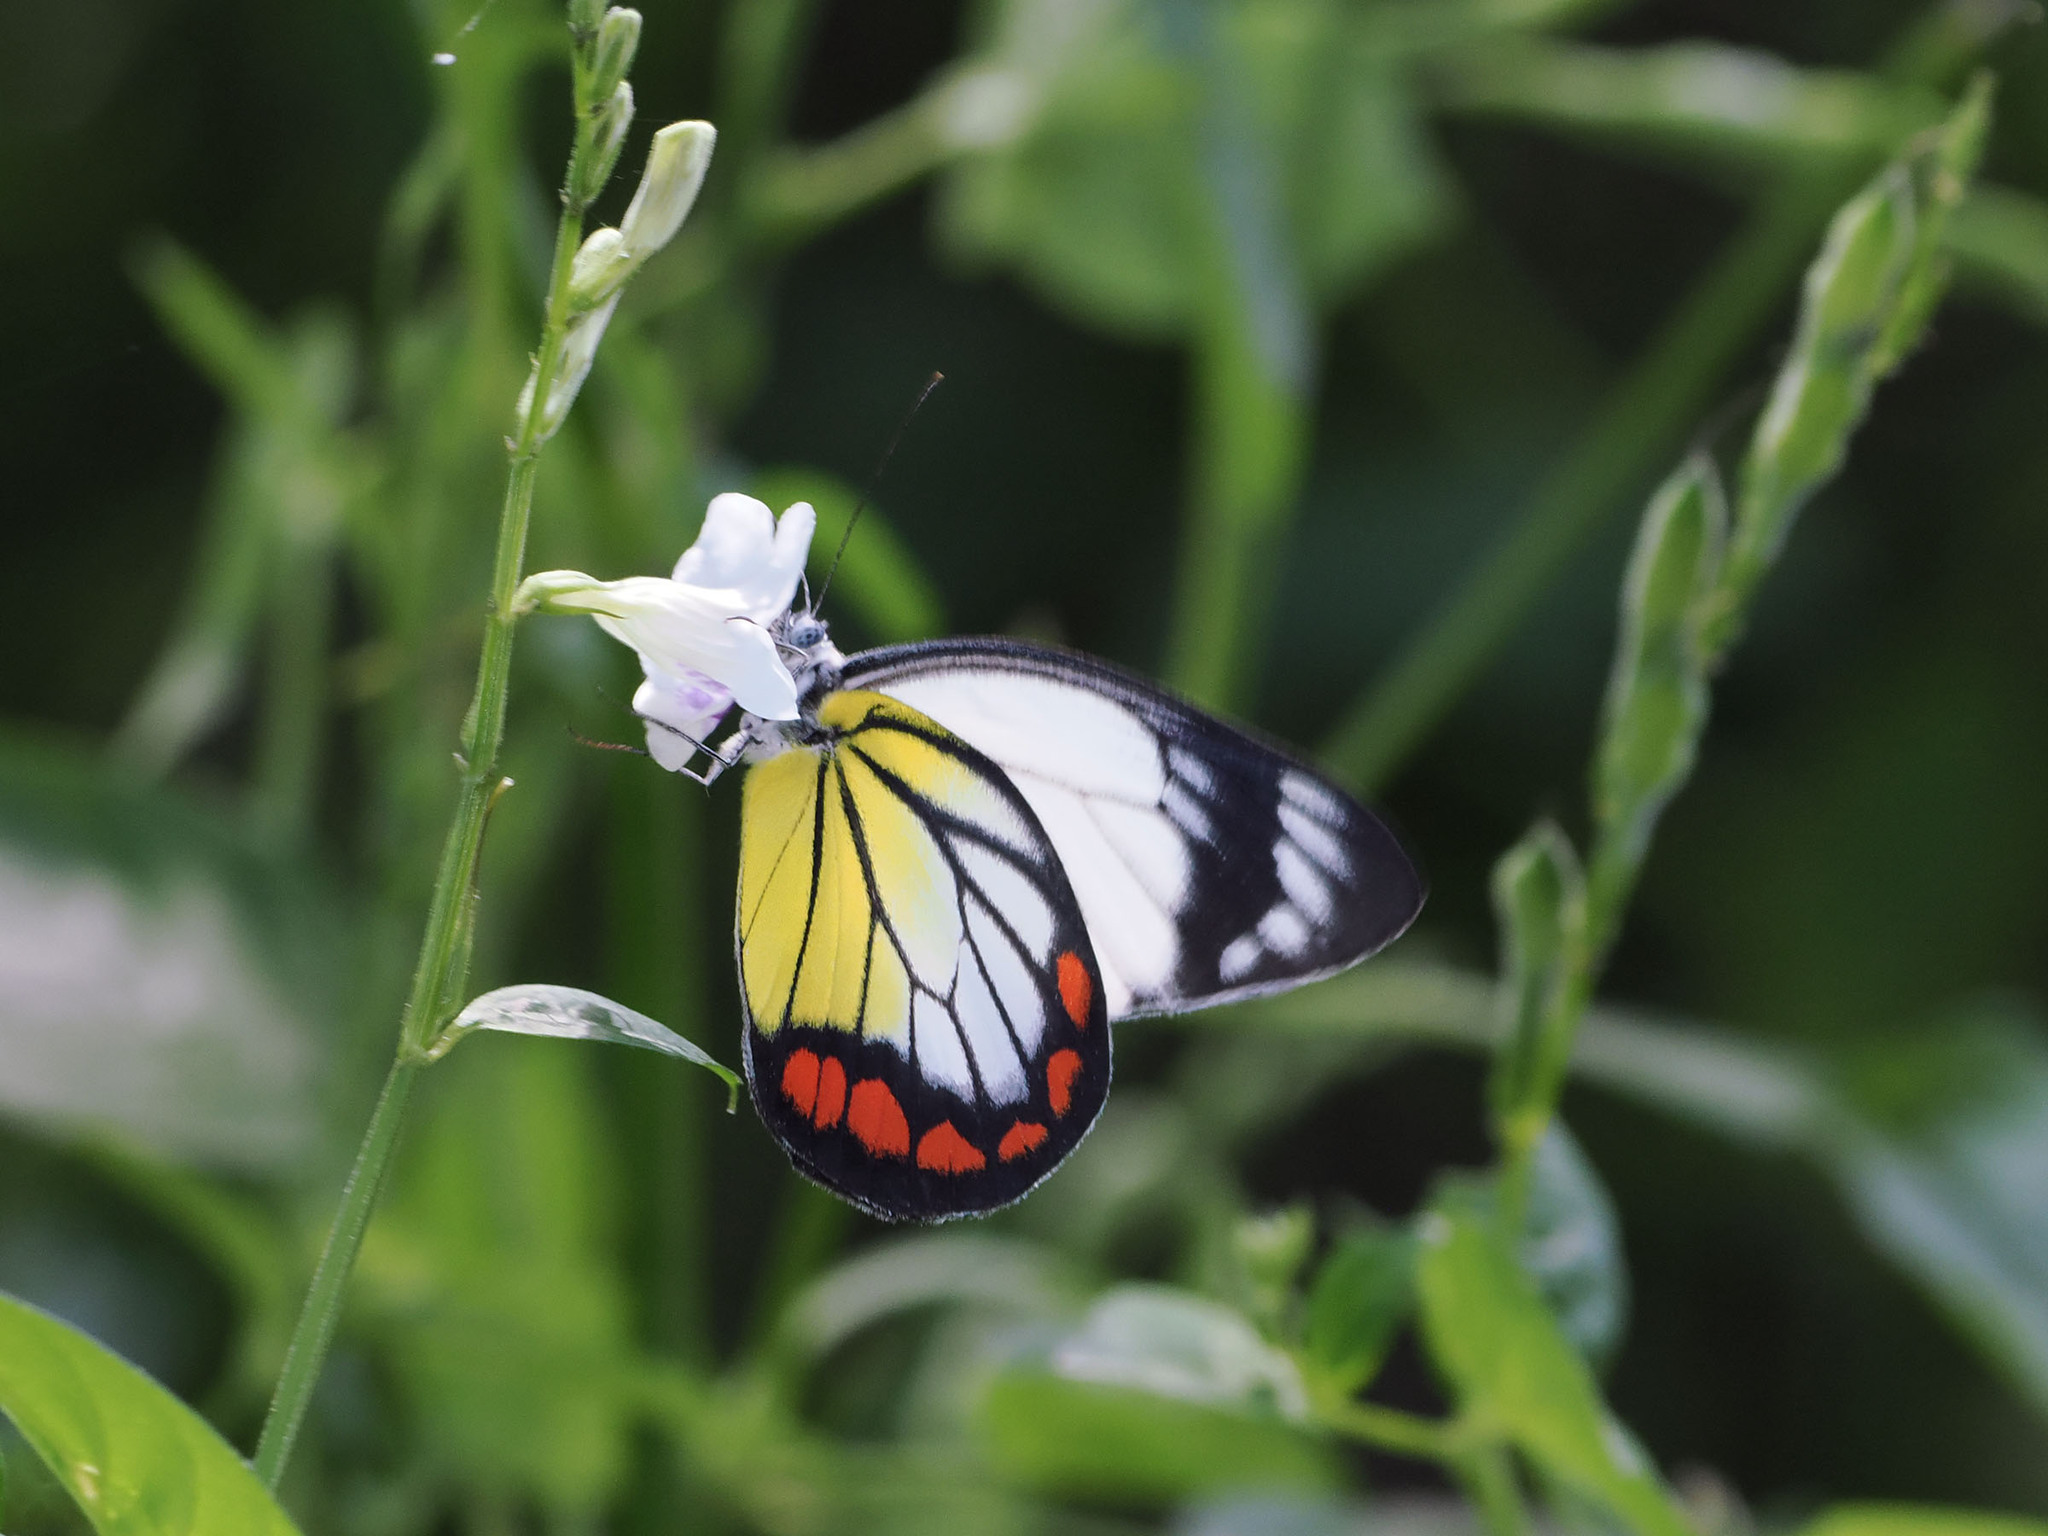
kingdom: Animalia
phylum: Arthropoda
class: Insecta
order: Lepidoptera
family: Pieridae
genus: Delias
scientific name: Delias hyparete
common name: Painted jezebel
